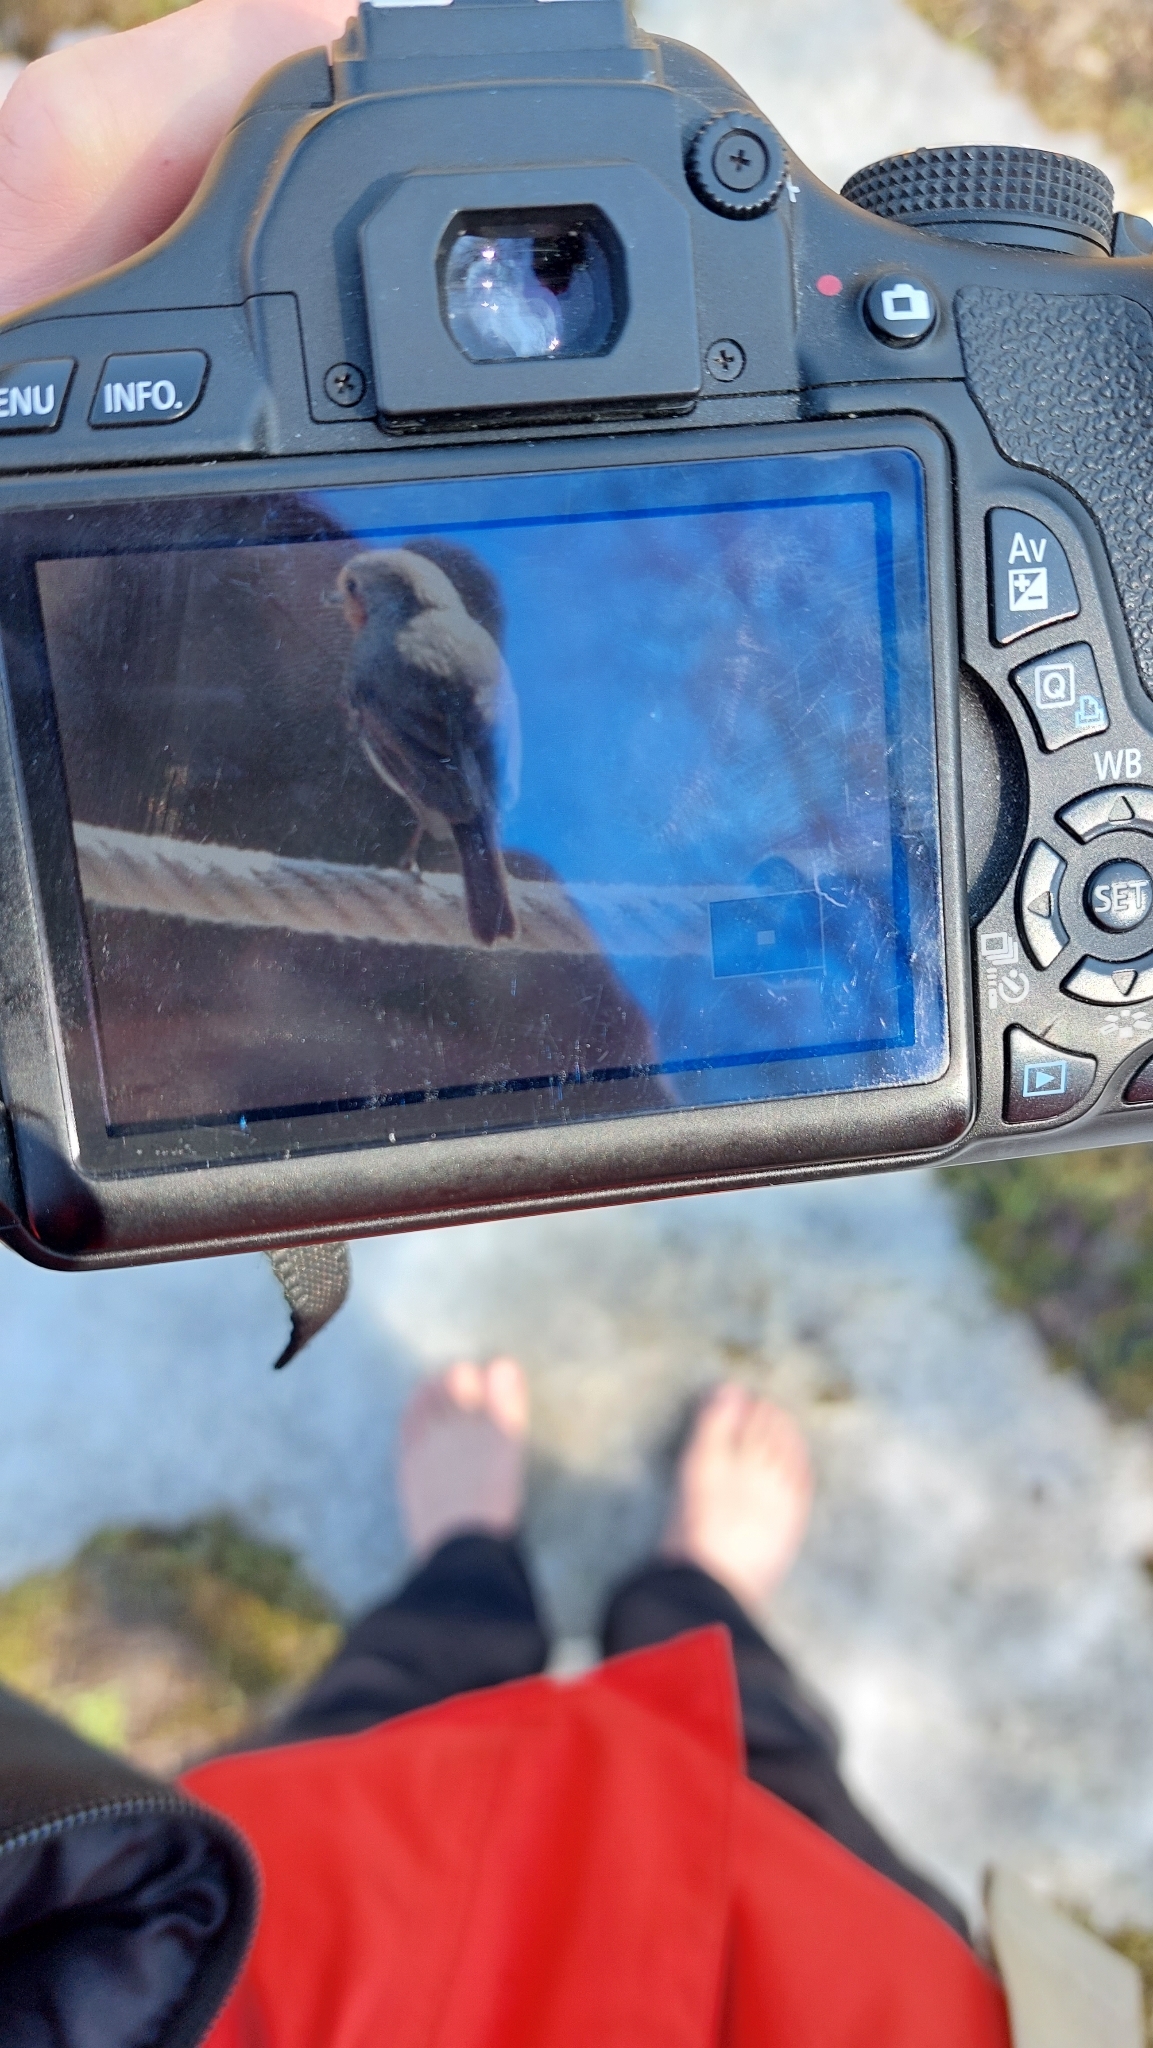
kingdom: Animalia
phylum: Chordata
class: Aves
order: Passeriformes
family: Muscicapidae
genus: Erithacus
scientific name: Erithacus rubecula
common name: European robin
